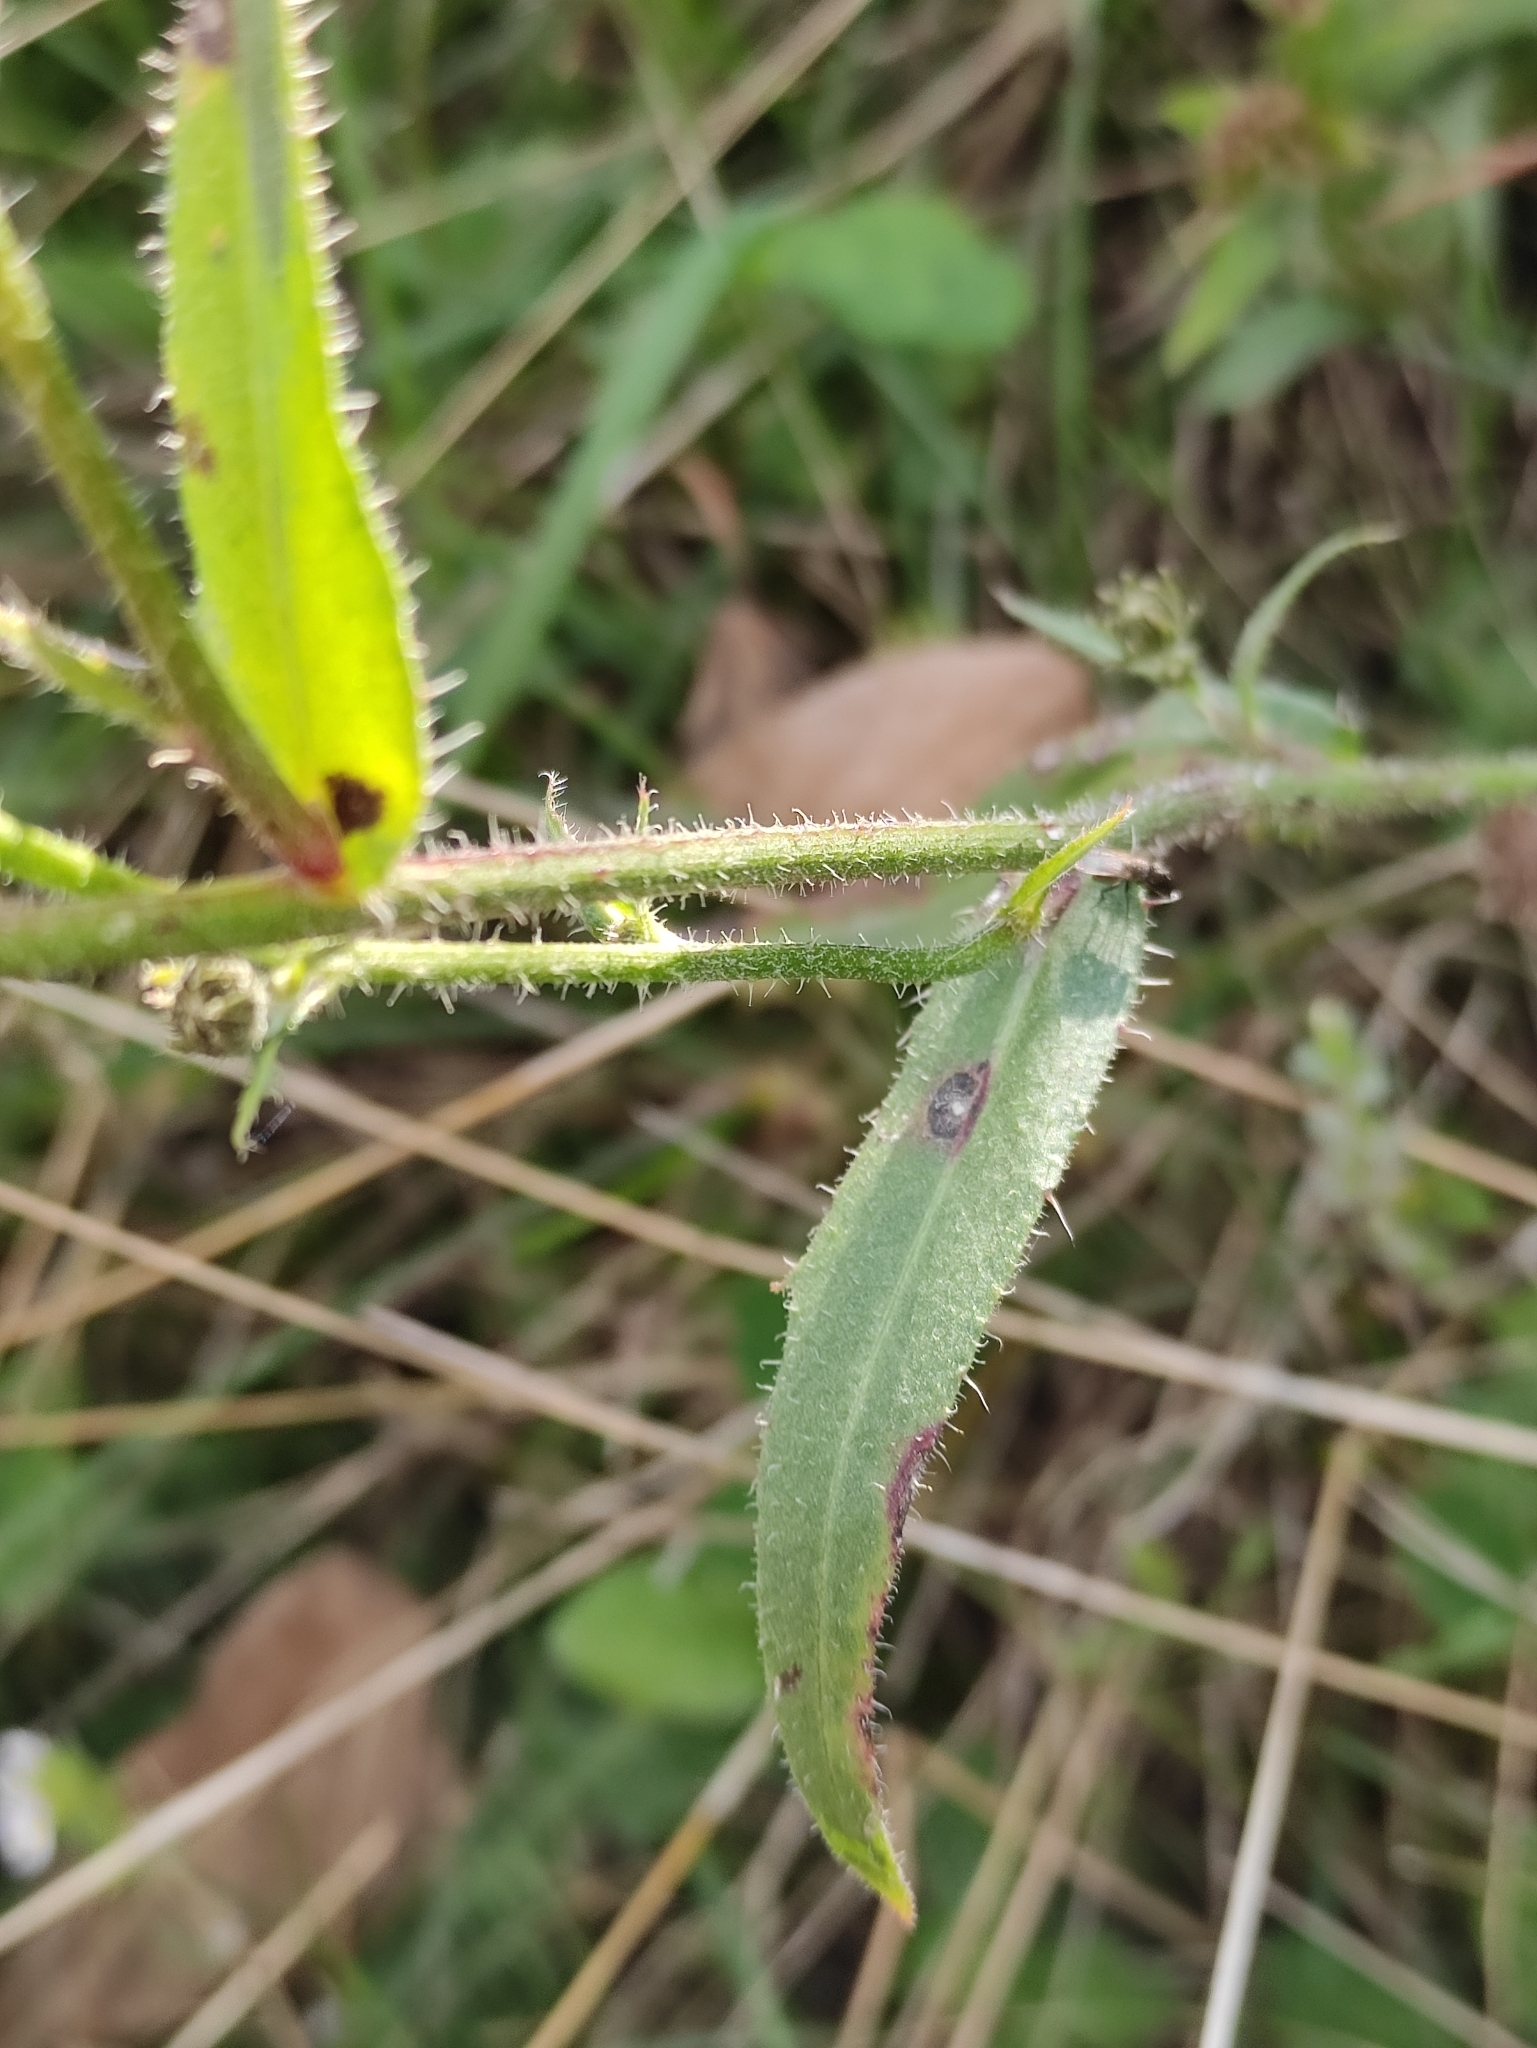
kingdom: Plantae
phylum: Tracheophyta
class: Magnoliopsida
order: Asterales
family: Asteraceae
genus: Picris
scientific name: Picris hieracioides
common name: Hawkweed oxtongue
